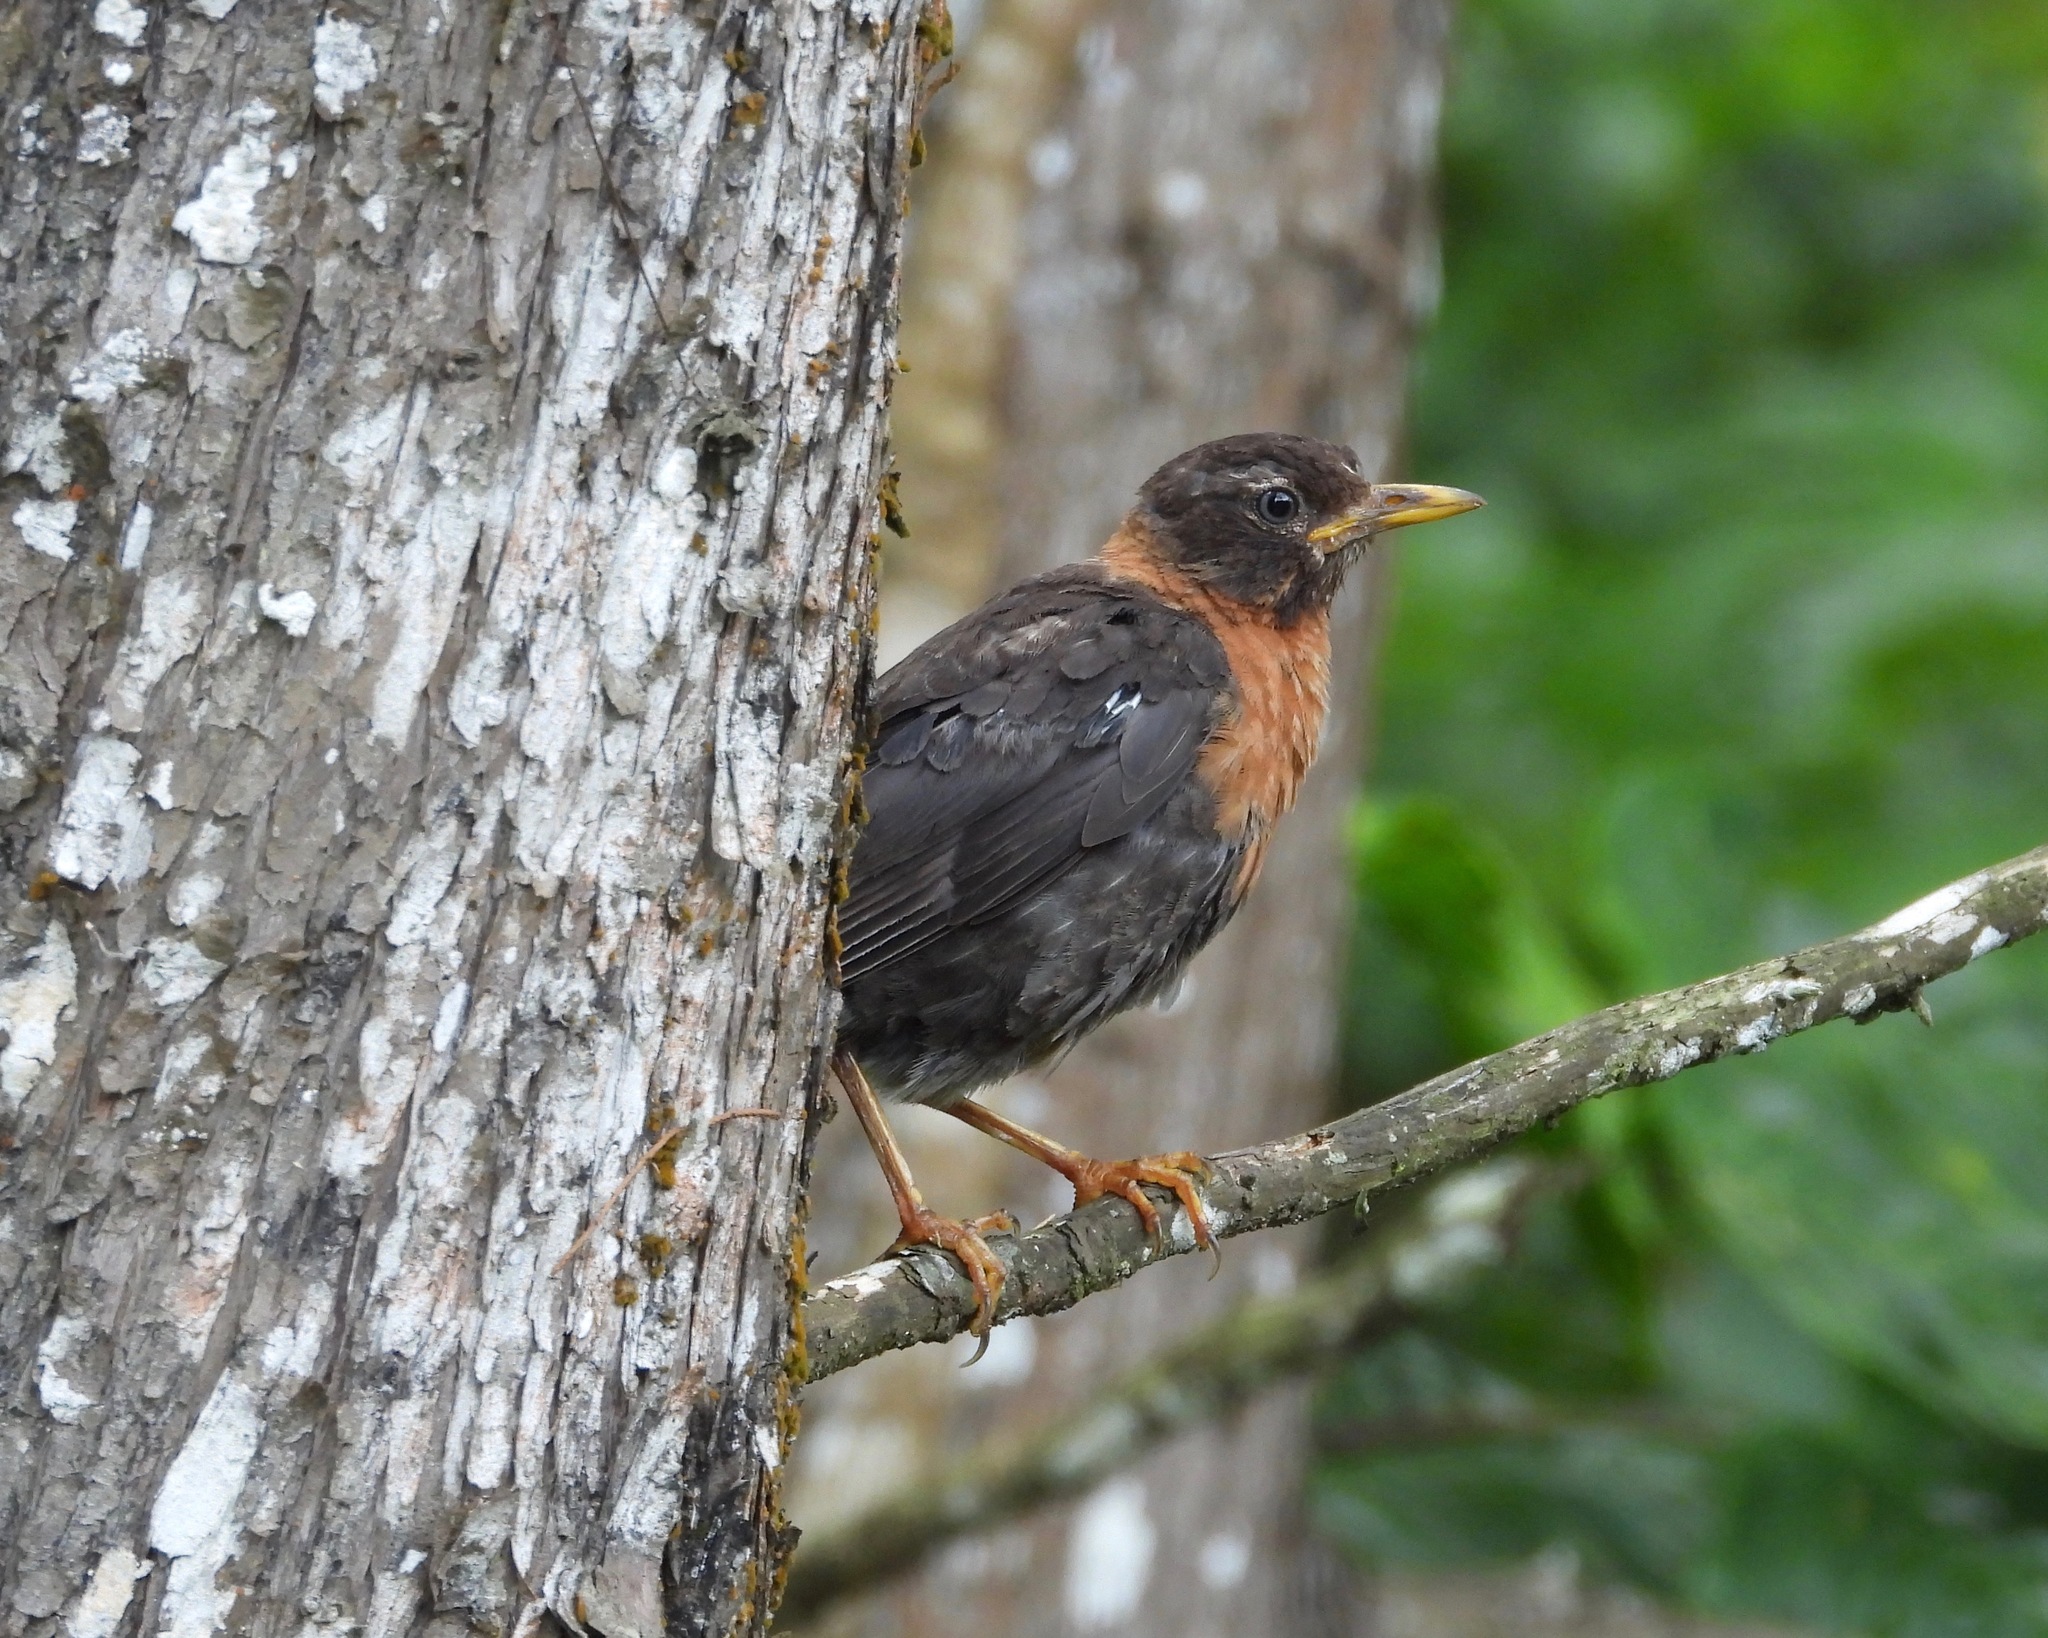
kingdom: Animalia
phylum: Chordata
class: Aves
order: Passeriformes
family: Turdidae
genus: Turdus
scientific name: Turdus rufitorques
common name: Rufous-collared thrush
